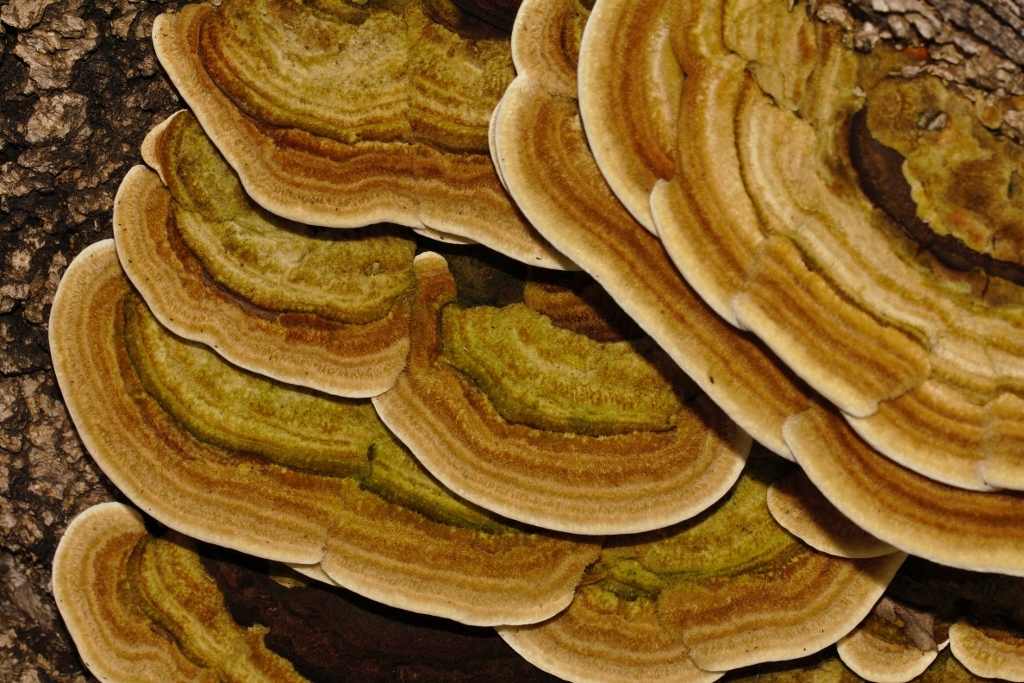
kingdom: Fungi
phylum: Basidiomycota
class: Agaricomycetes
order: Polyporales
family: Polyporaceae
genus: Trametes
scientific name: Trametes polyzona
